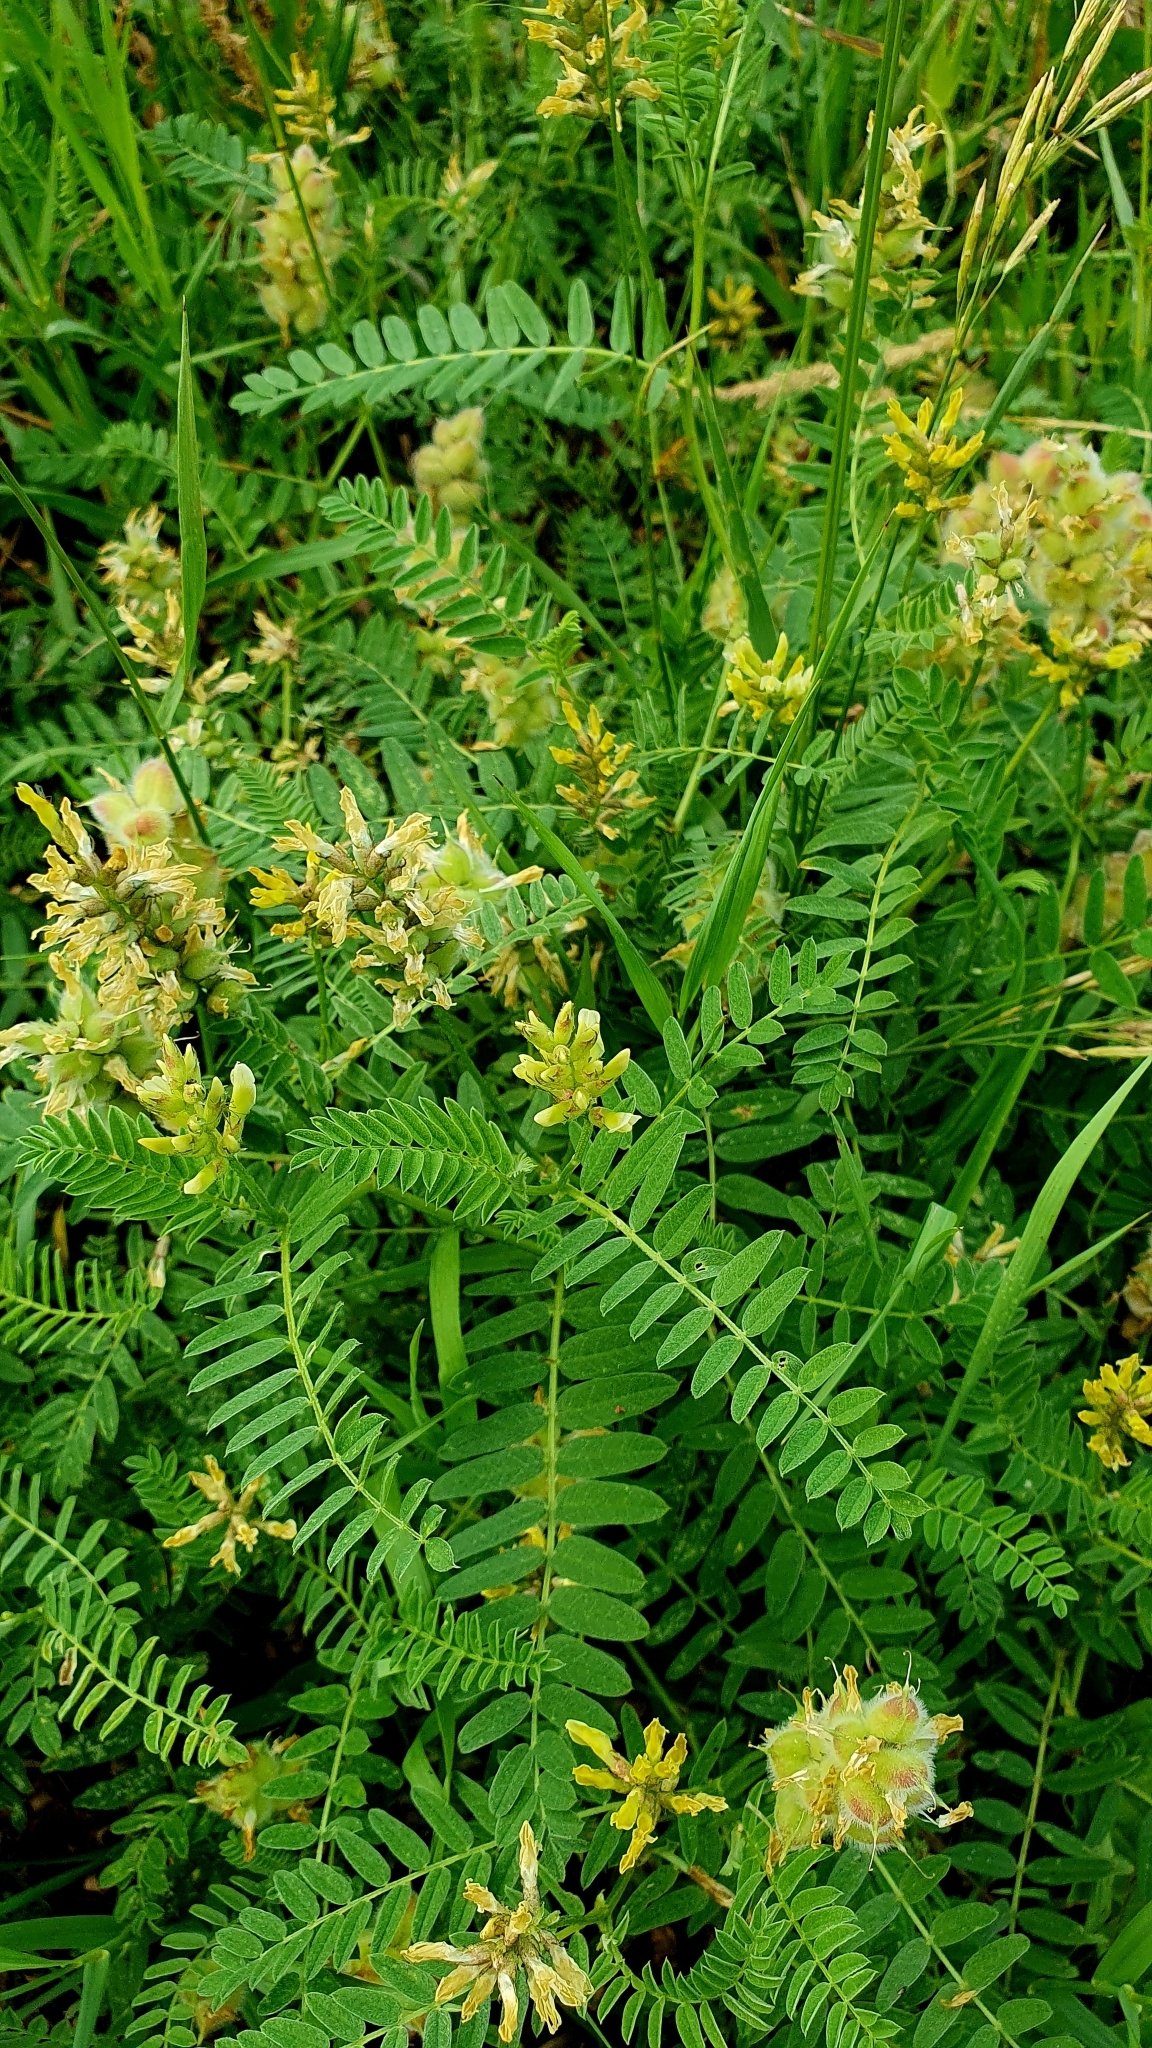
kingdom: Plantae
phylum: Tracheophyta
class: Magnoliopsida
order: Fabales
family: Fabaceae
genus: Astragalus
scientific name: Astragalus cicer
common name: Chick-pea milk-vetch
